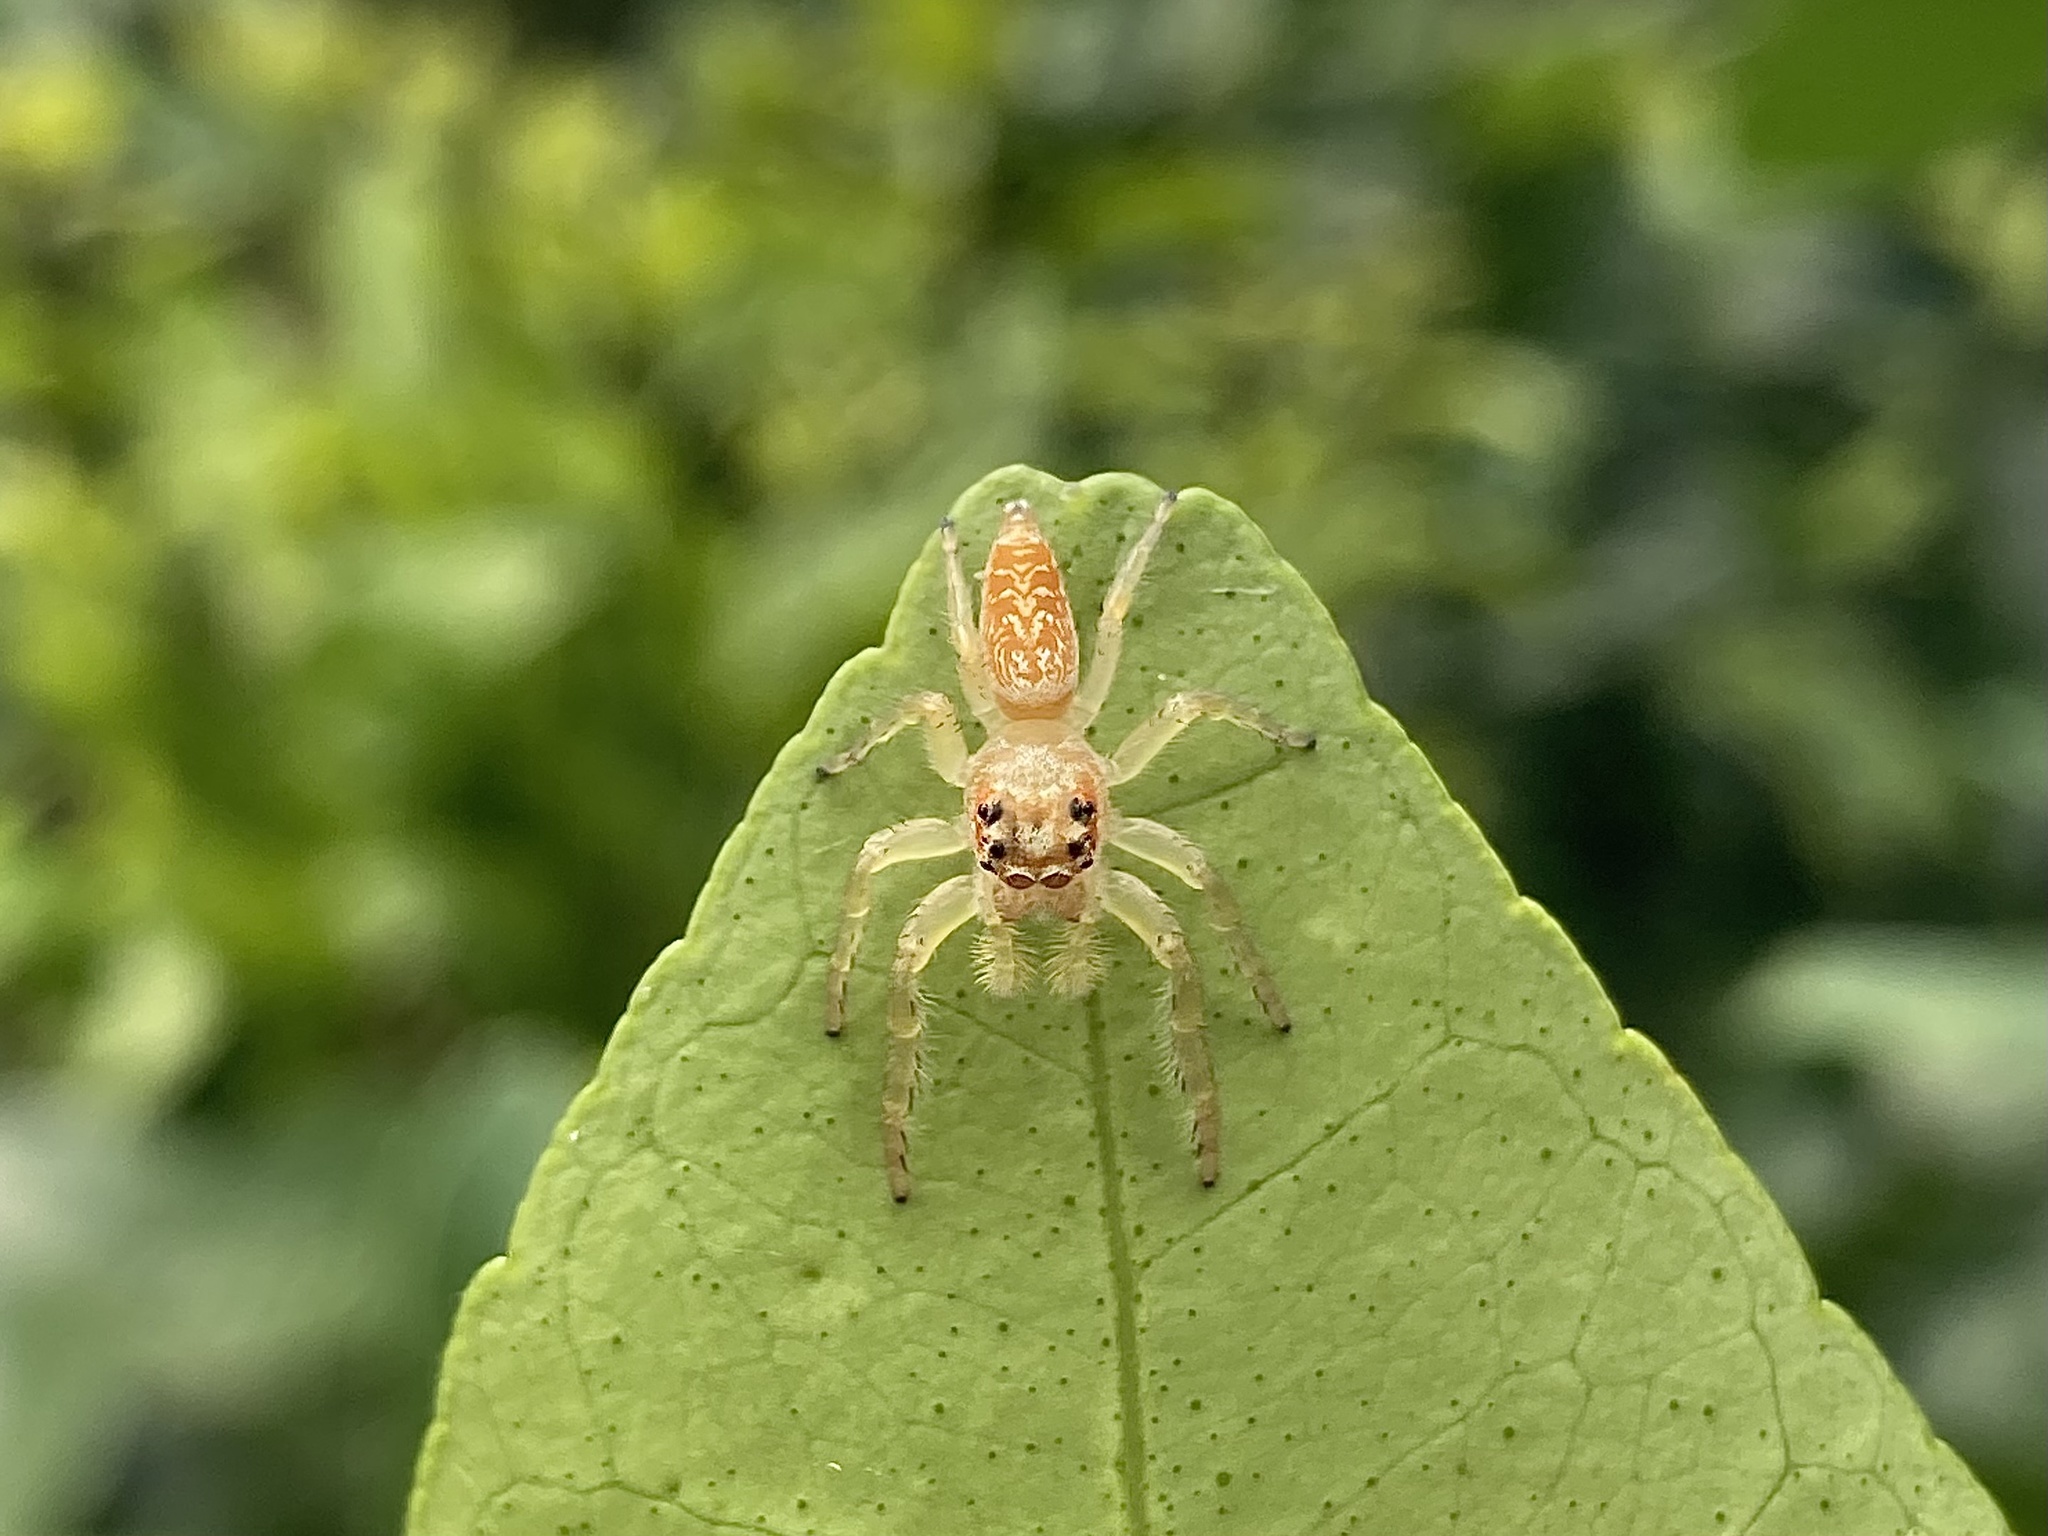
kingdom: Animalia
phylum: Arthropoda
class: Arachnida
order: Araneae
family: Salticidae
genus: Opisthoncus
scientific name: Opisthoncus quadratarius
